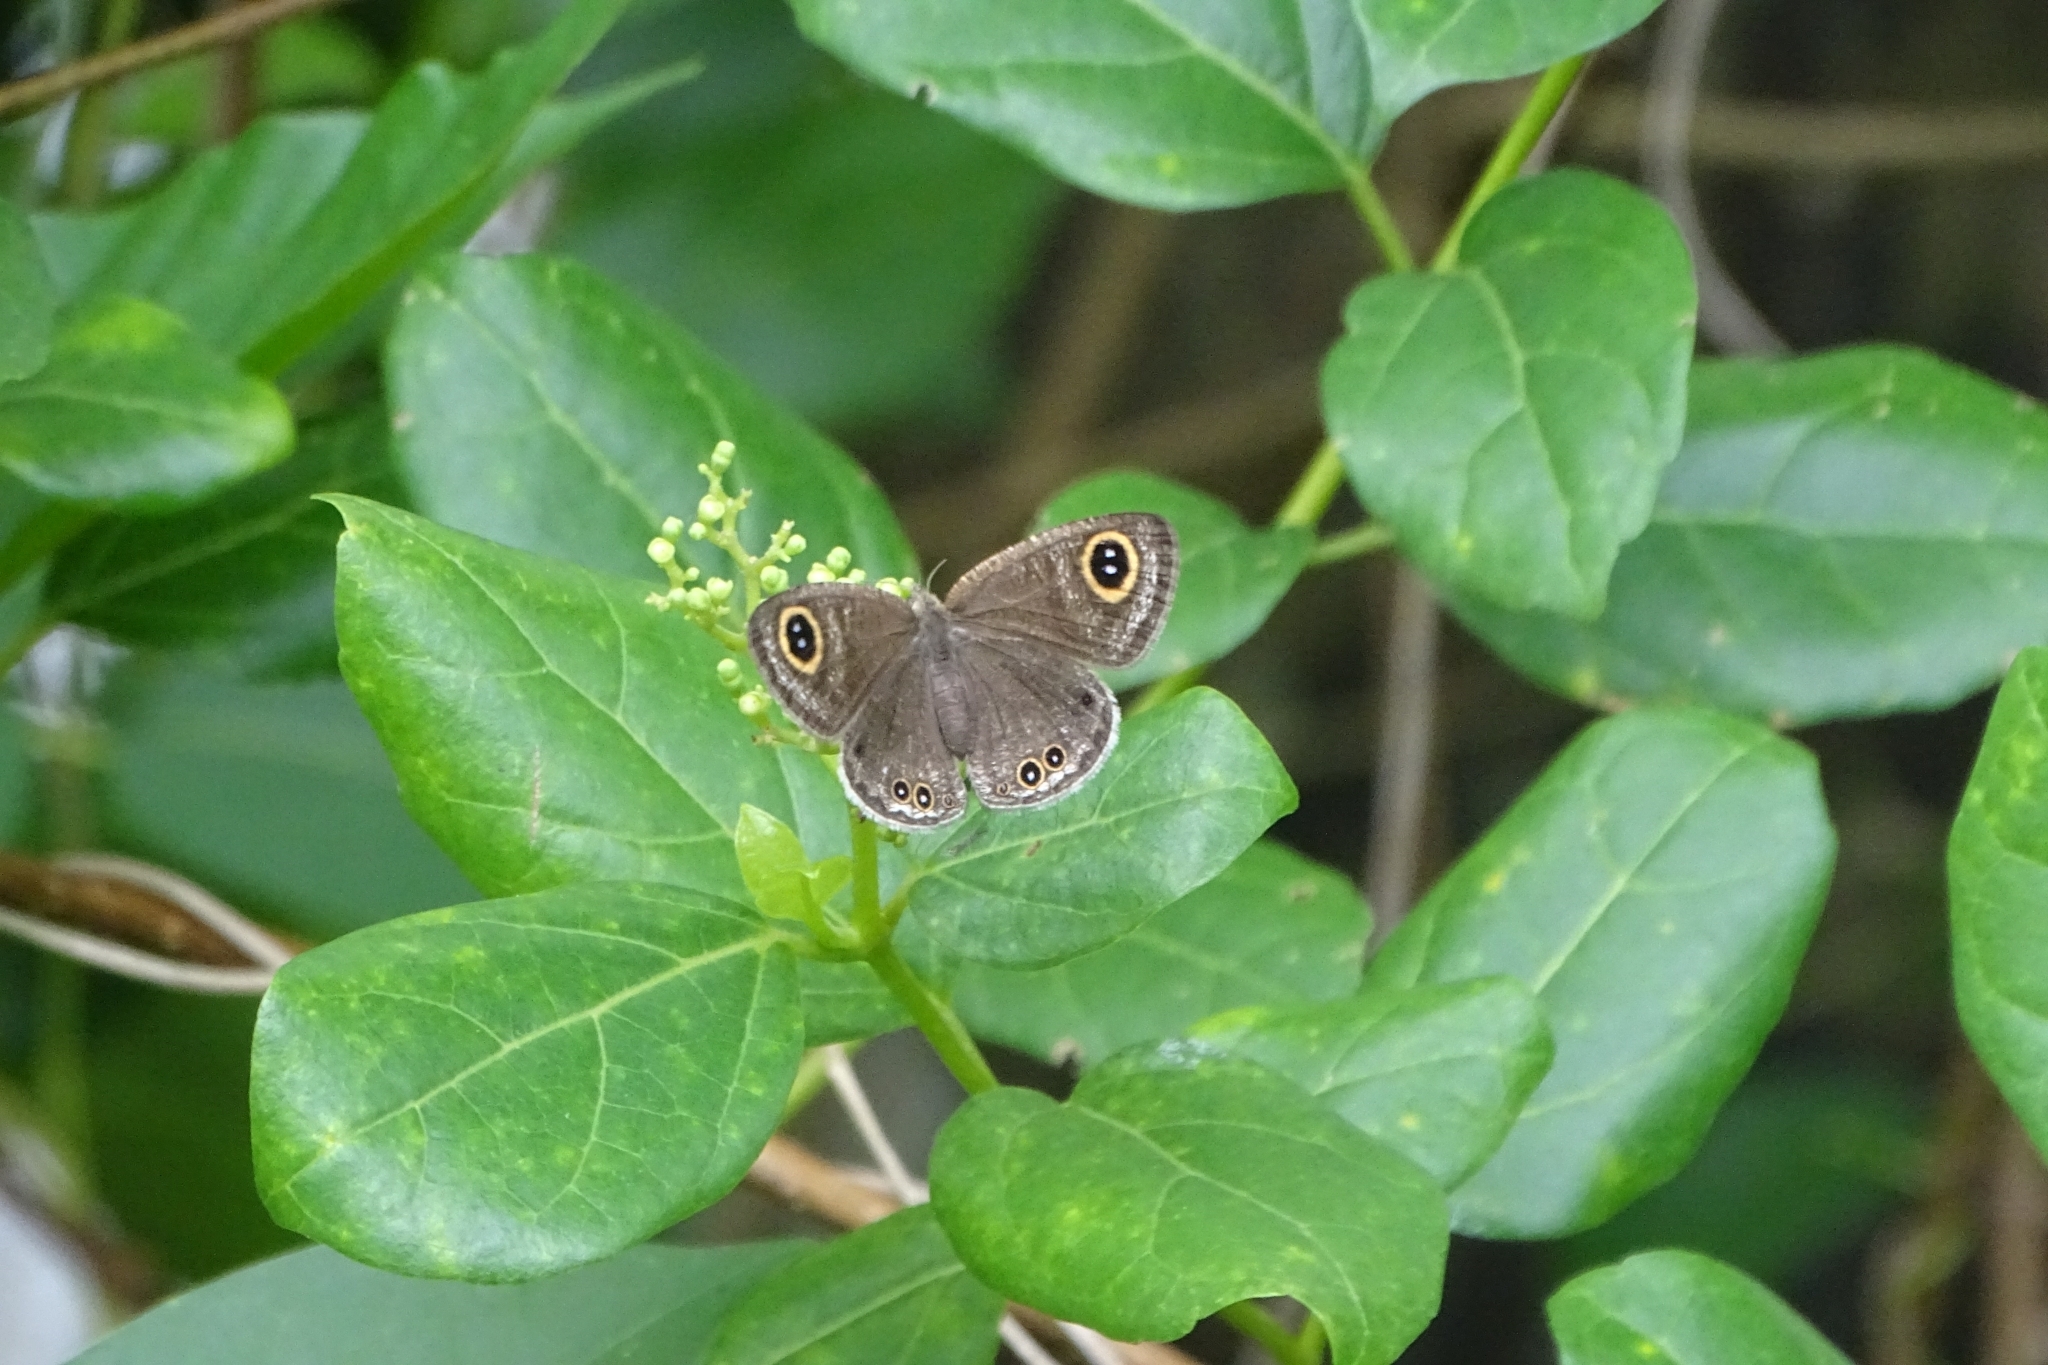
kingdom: Animalia
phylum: Arthropoda
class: Insecta
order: Lepidoptera
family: Nymphalidae
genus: Ypthima
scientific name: Ypthima huebneri
